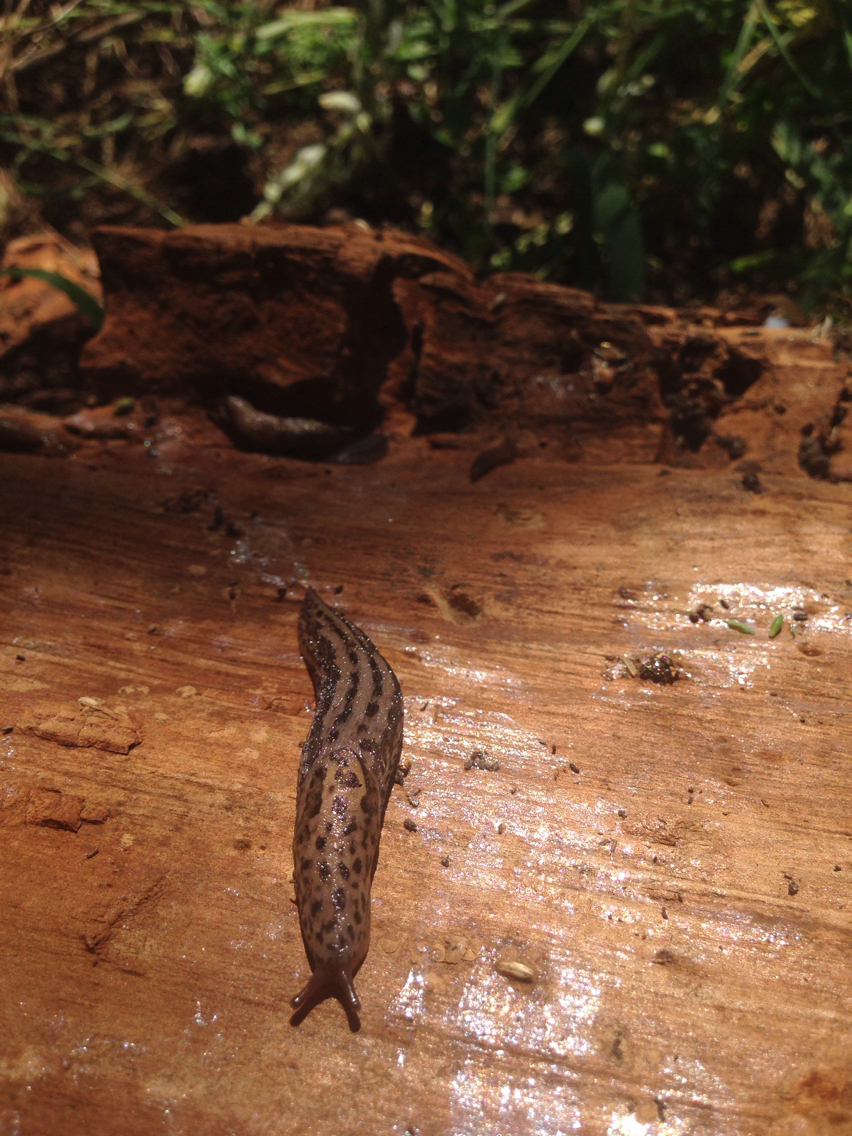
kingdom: Animalia
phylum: Mollusca
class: Gastropoda
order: Stylommatophora
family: Limacidae
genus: Limax
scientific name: Limax maximus
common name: Great grey slug
